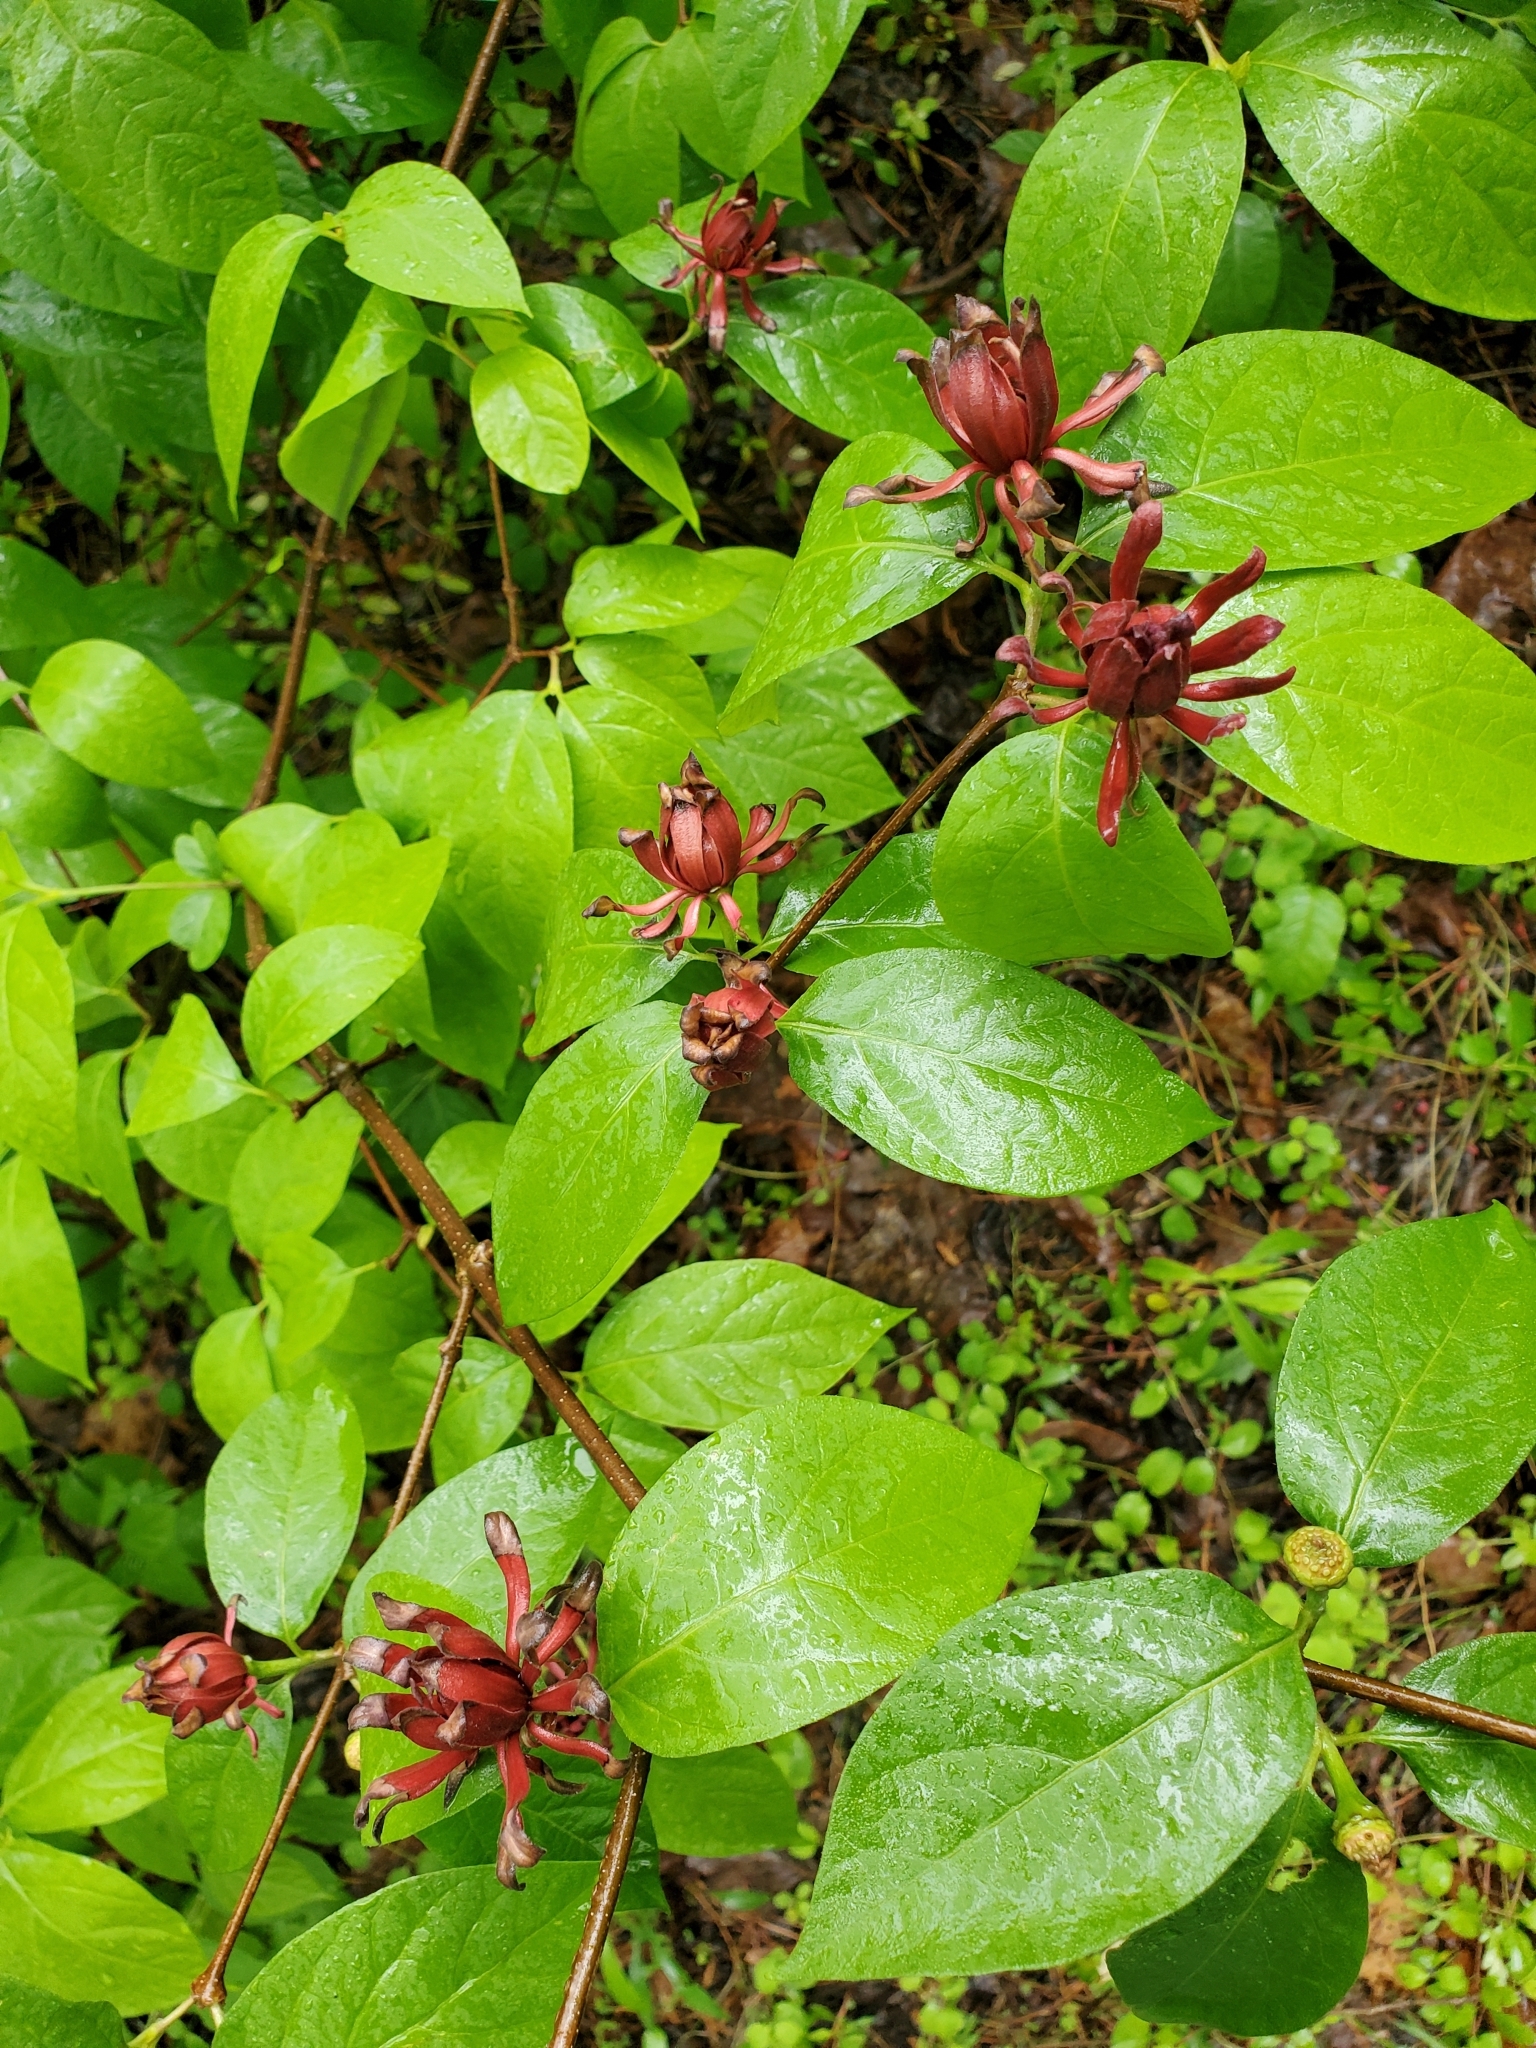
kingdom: Plantae
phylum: Tracheophyta
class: Magnoliopsida
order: Laurales
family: Calycanthaceae
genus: Calycanthus
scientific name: Calycanthus floridus
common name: Carolina-allspice
